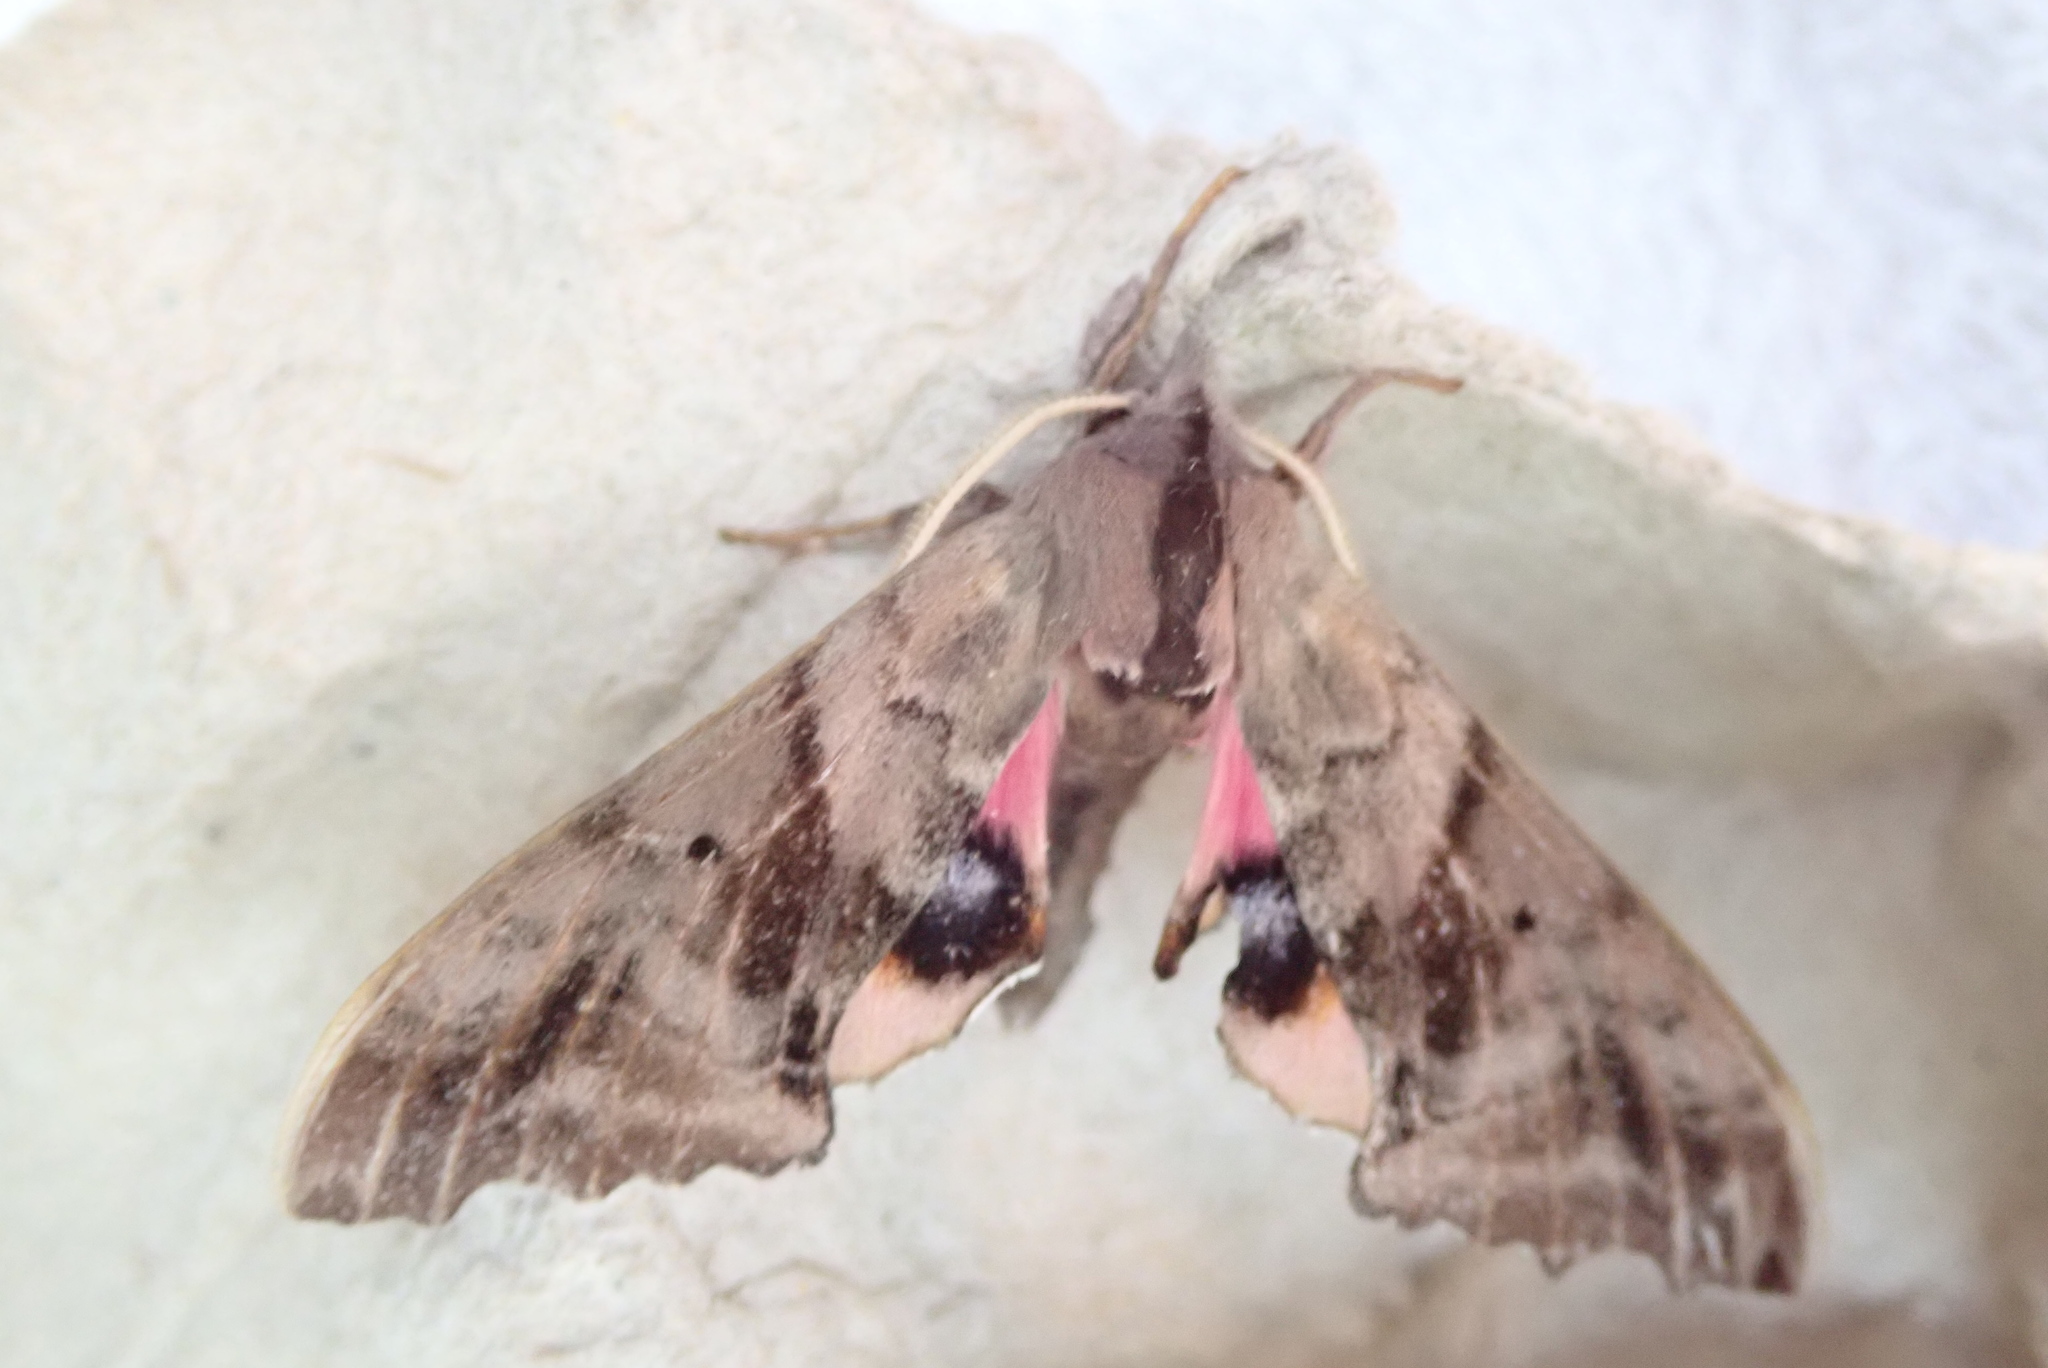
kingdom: Animalia
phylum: Arthropoda
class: Insecta
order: Lepidoptera
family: Sphingidae
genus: Paonias
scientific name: Paonias excaecata
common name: Blind-eyed sphinx
